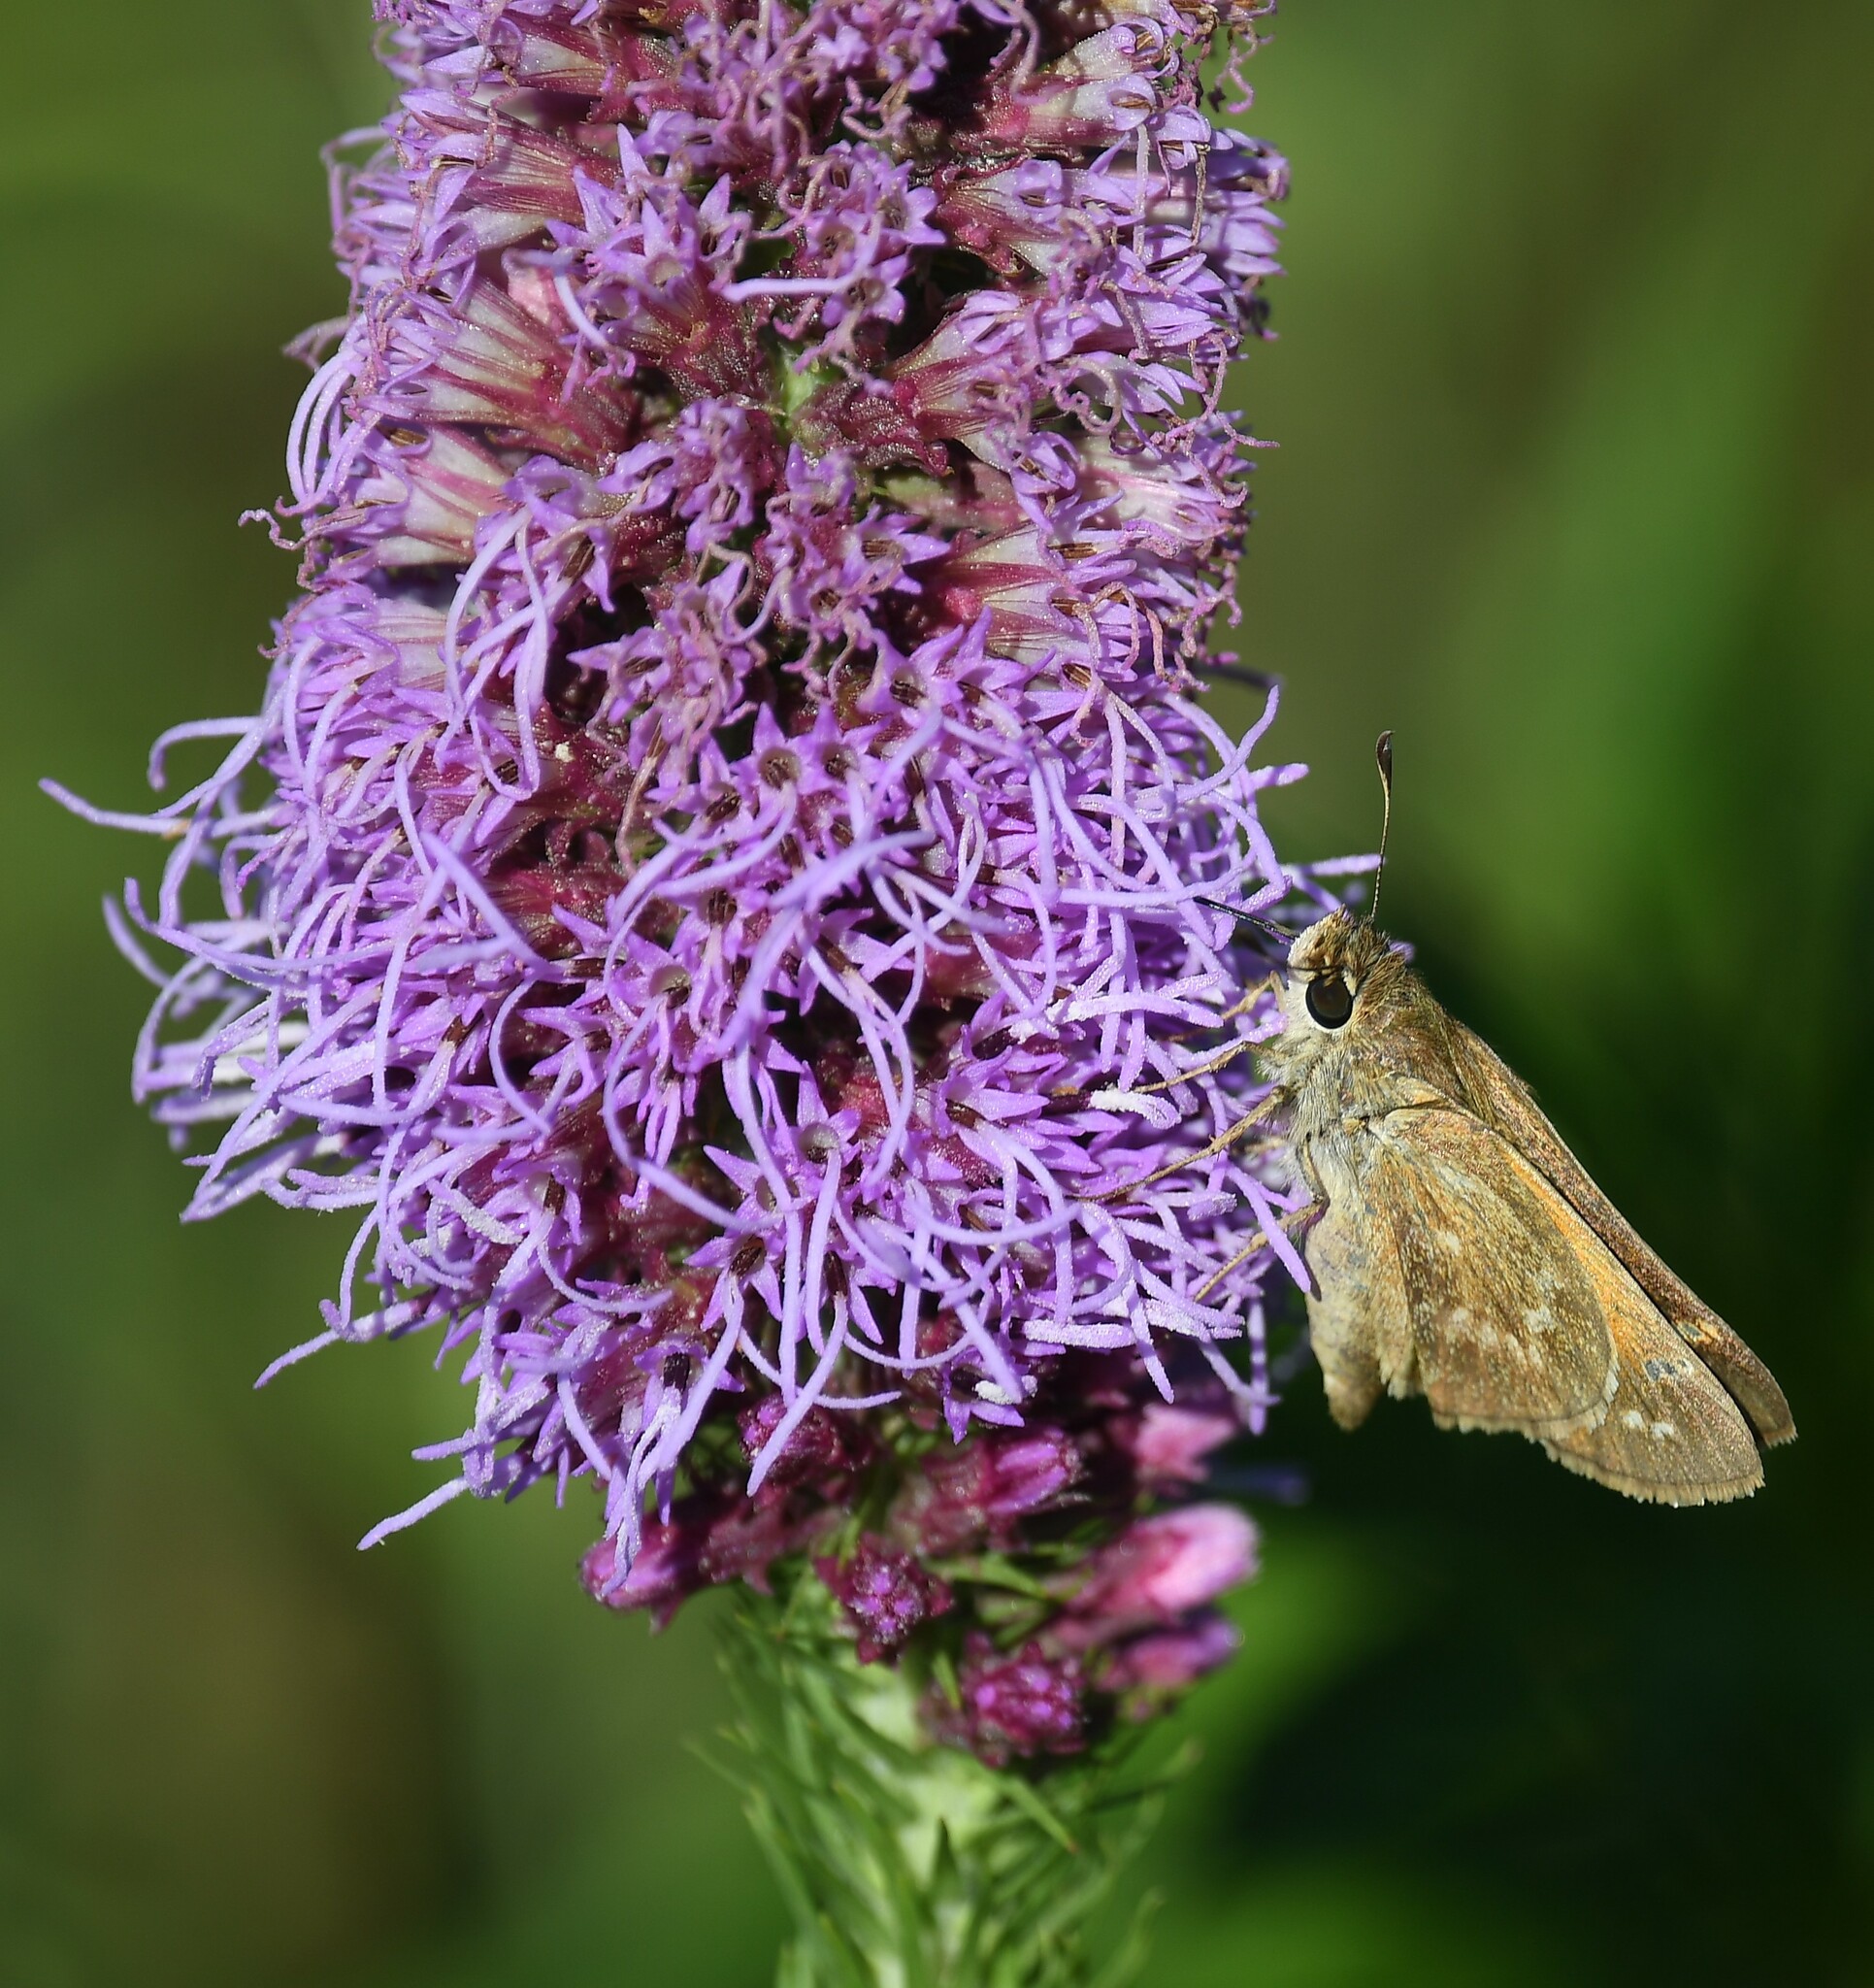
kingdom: Animalia
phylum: Arthropoda
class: Insecta
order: Lepidoptera
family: Hesperiidae
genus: Atalopedes
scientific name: Atalopedes
